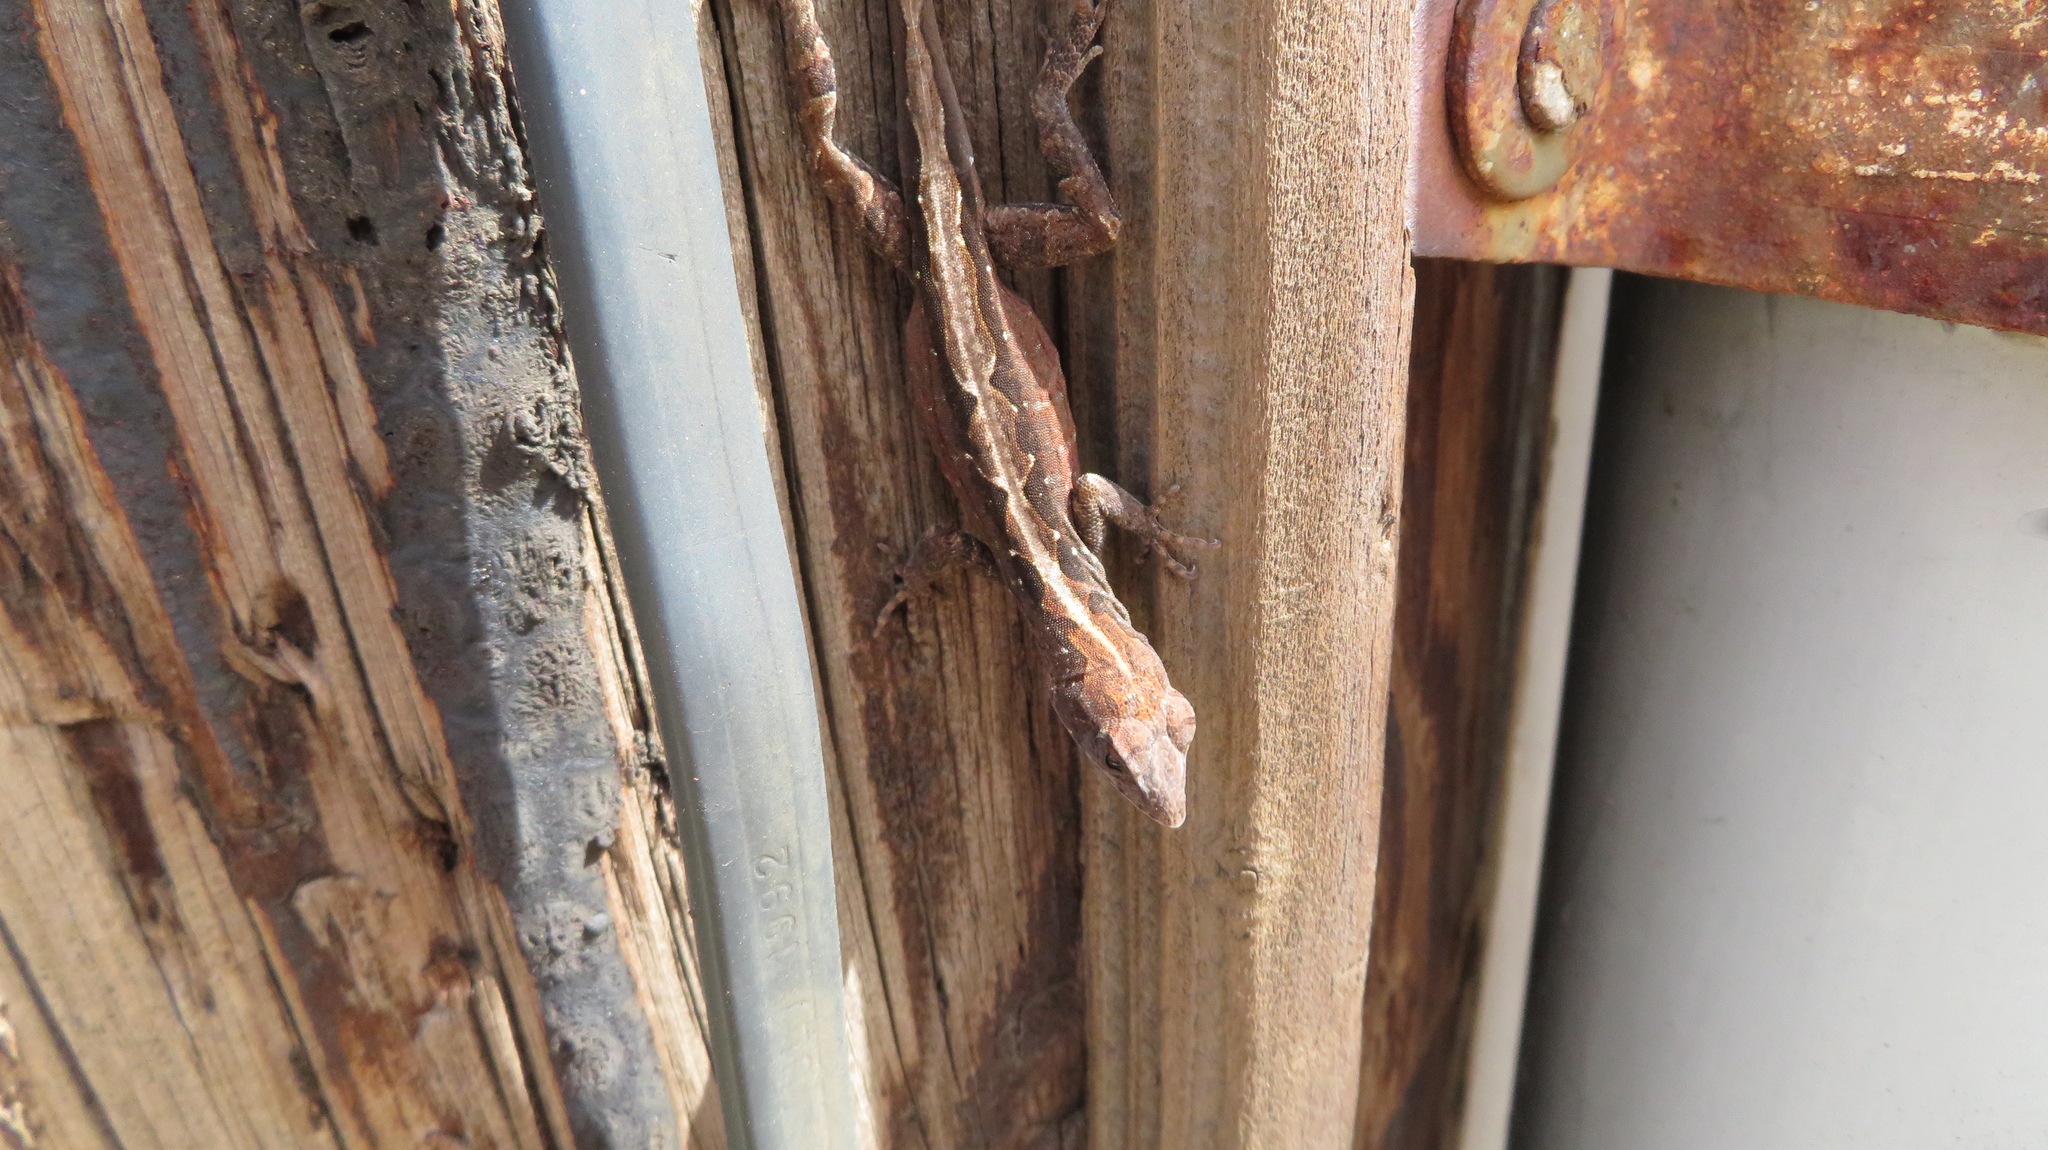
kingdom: Animalia
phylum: Chordata
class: Squamata
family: Dactyloidae
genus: Anolis
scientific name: Anolis sagrei
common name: Brown anole
